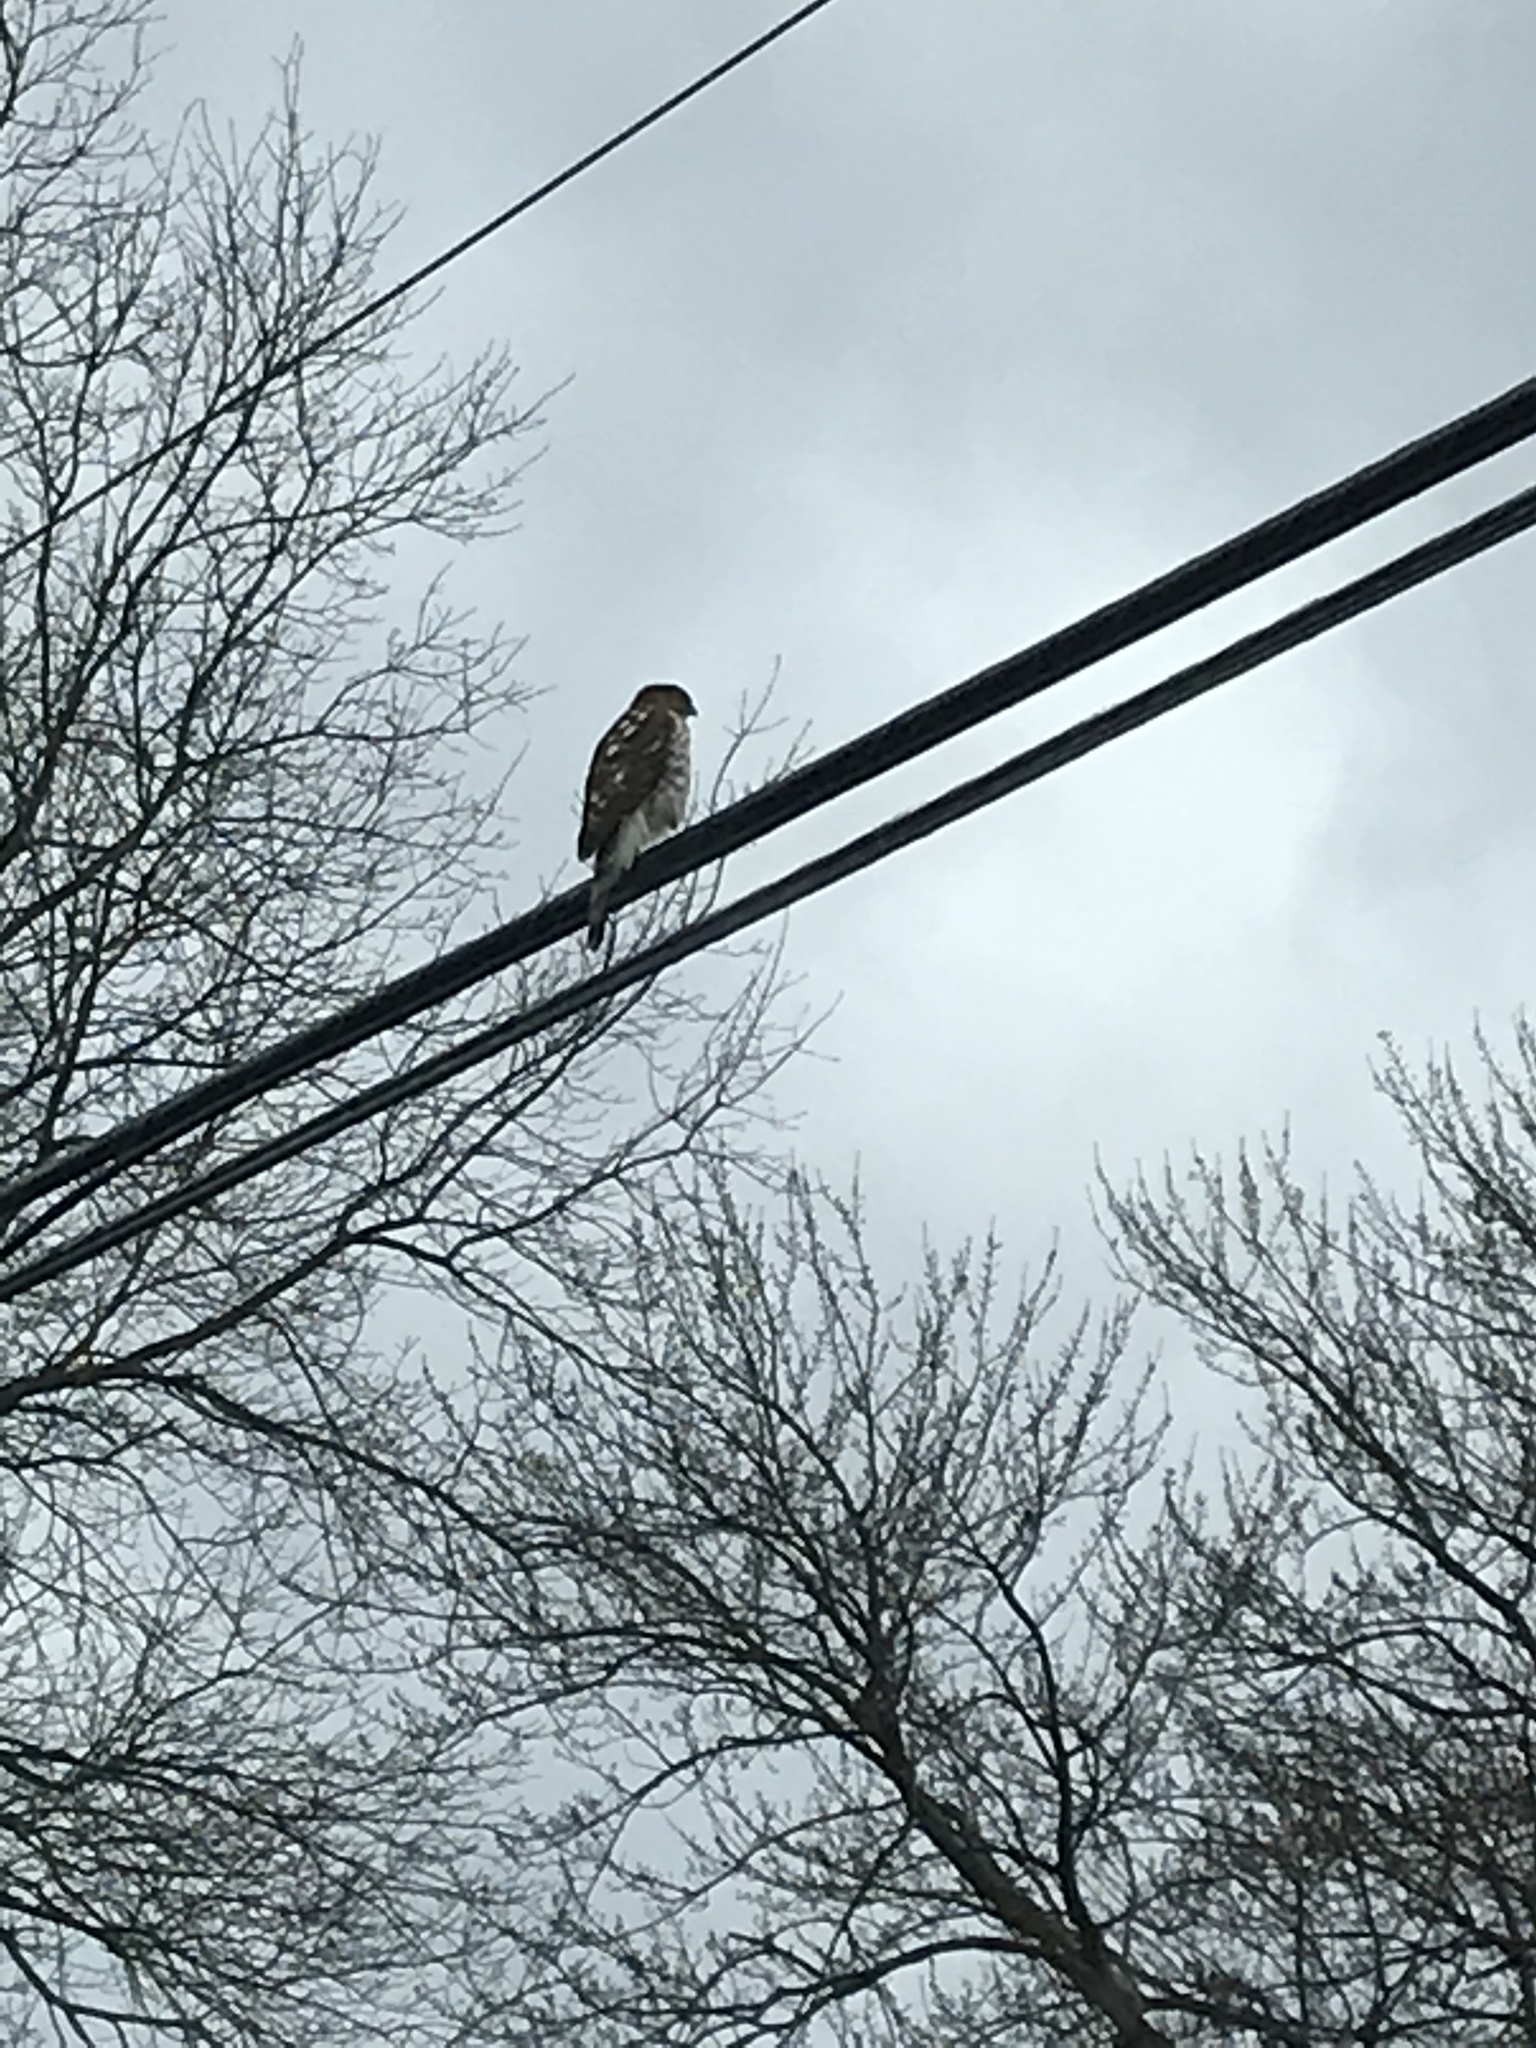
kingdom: Animalia
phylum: Chordata
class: Aves
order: Accipitriformes
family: Accipitridae
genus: Accipiter
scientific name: Accipiter cooperii
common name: Cooper's hawk
